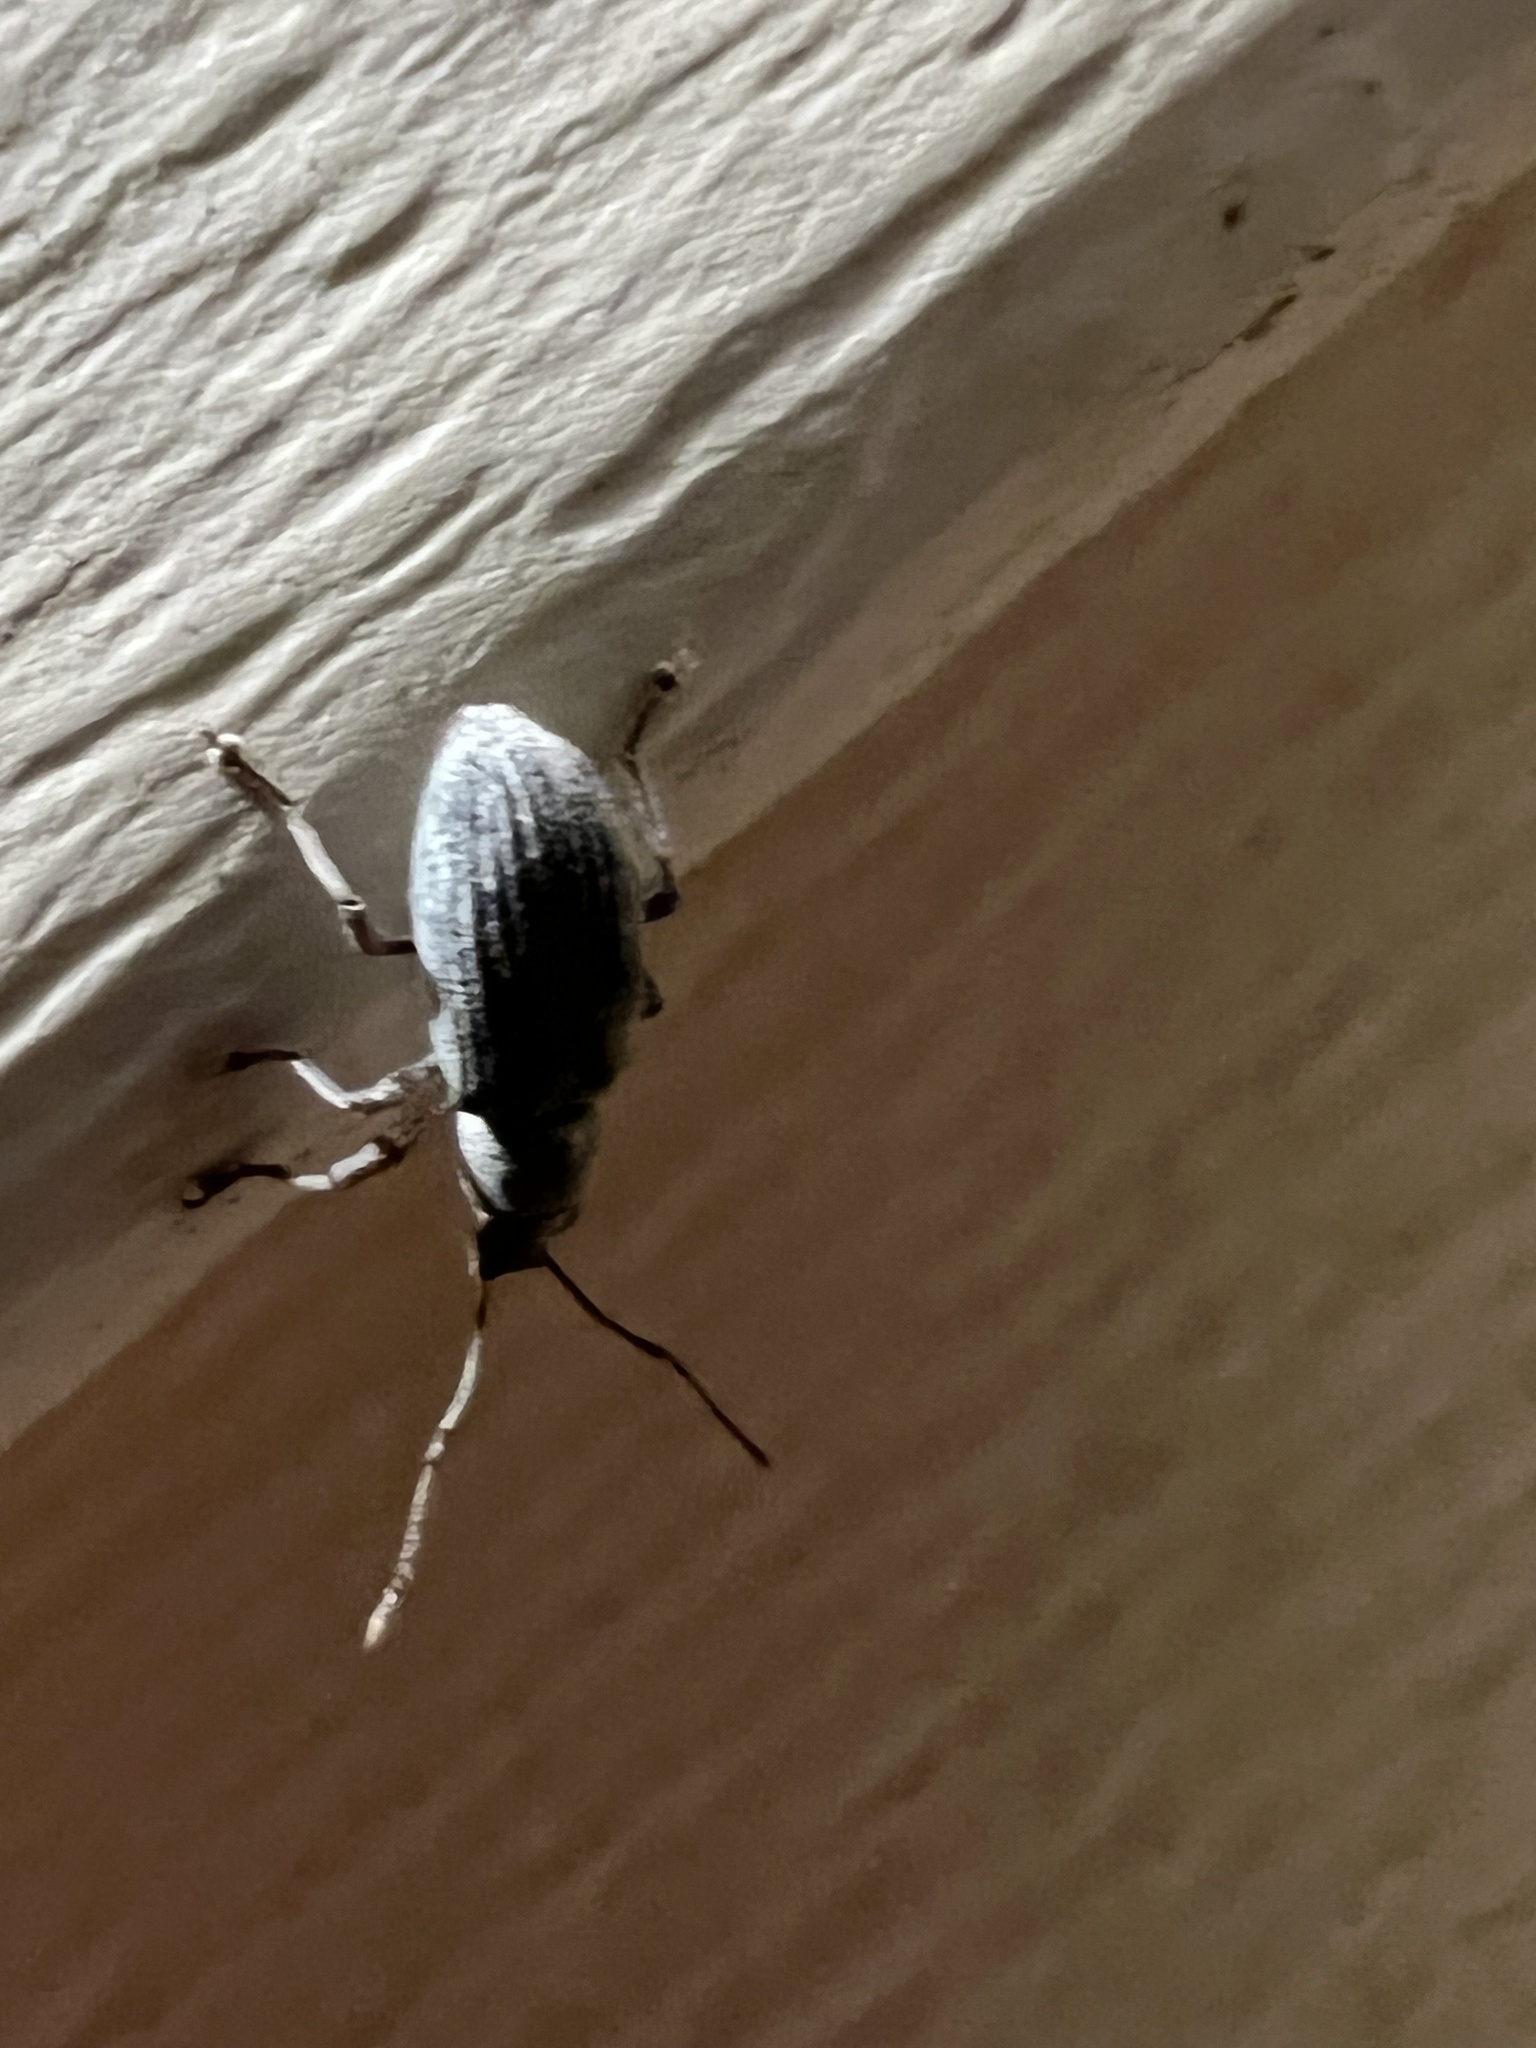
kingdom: Animalia
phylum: Arthropoda
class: Insecta
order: Coleoptera
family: Curculionidae
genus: Cyrtepistomus
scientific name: Cyrtepistomus castaneus
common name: Weevil
